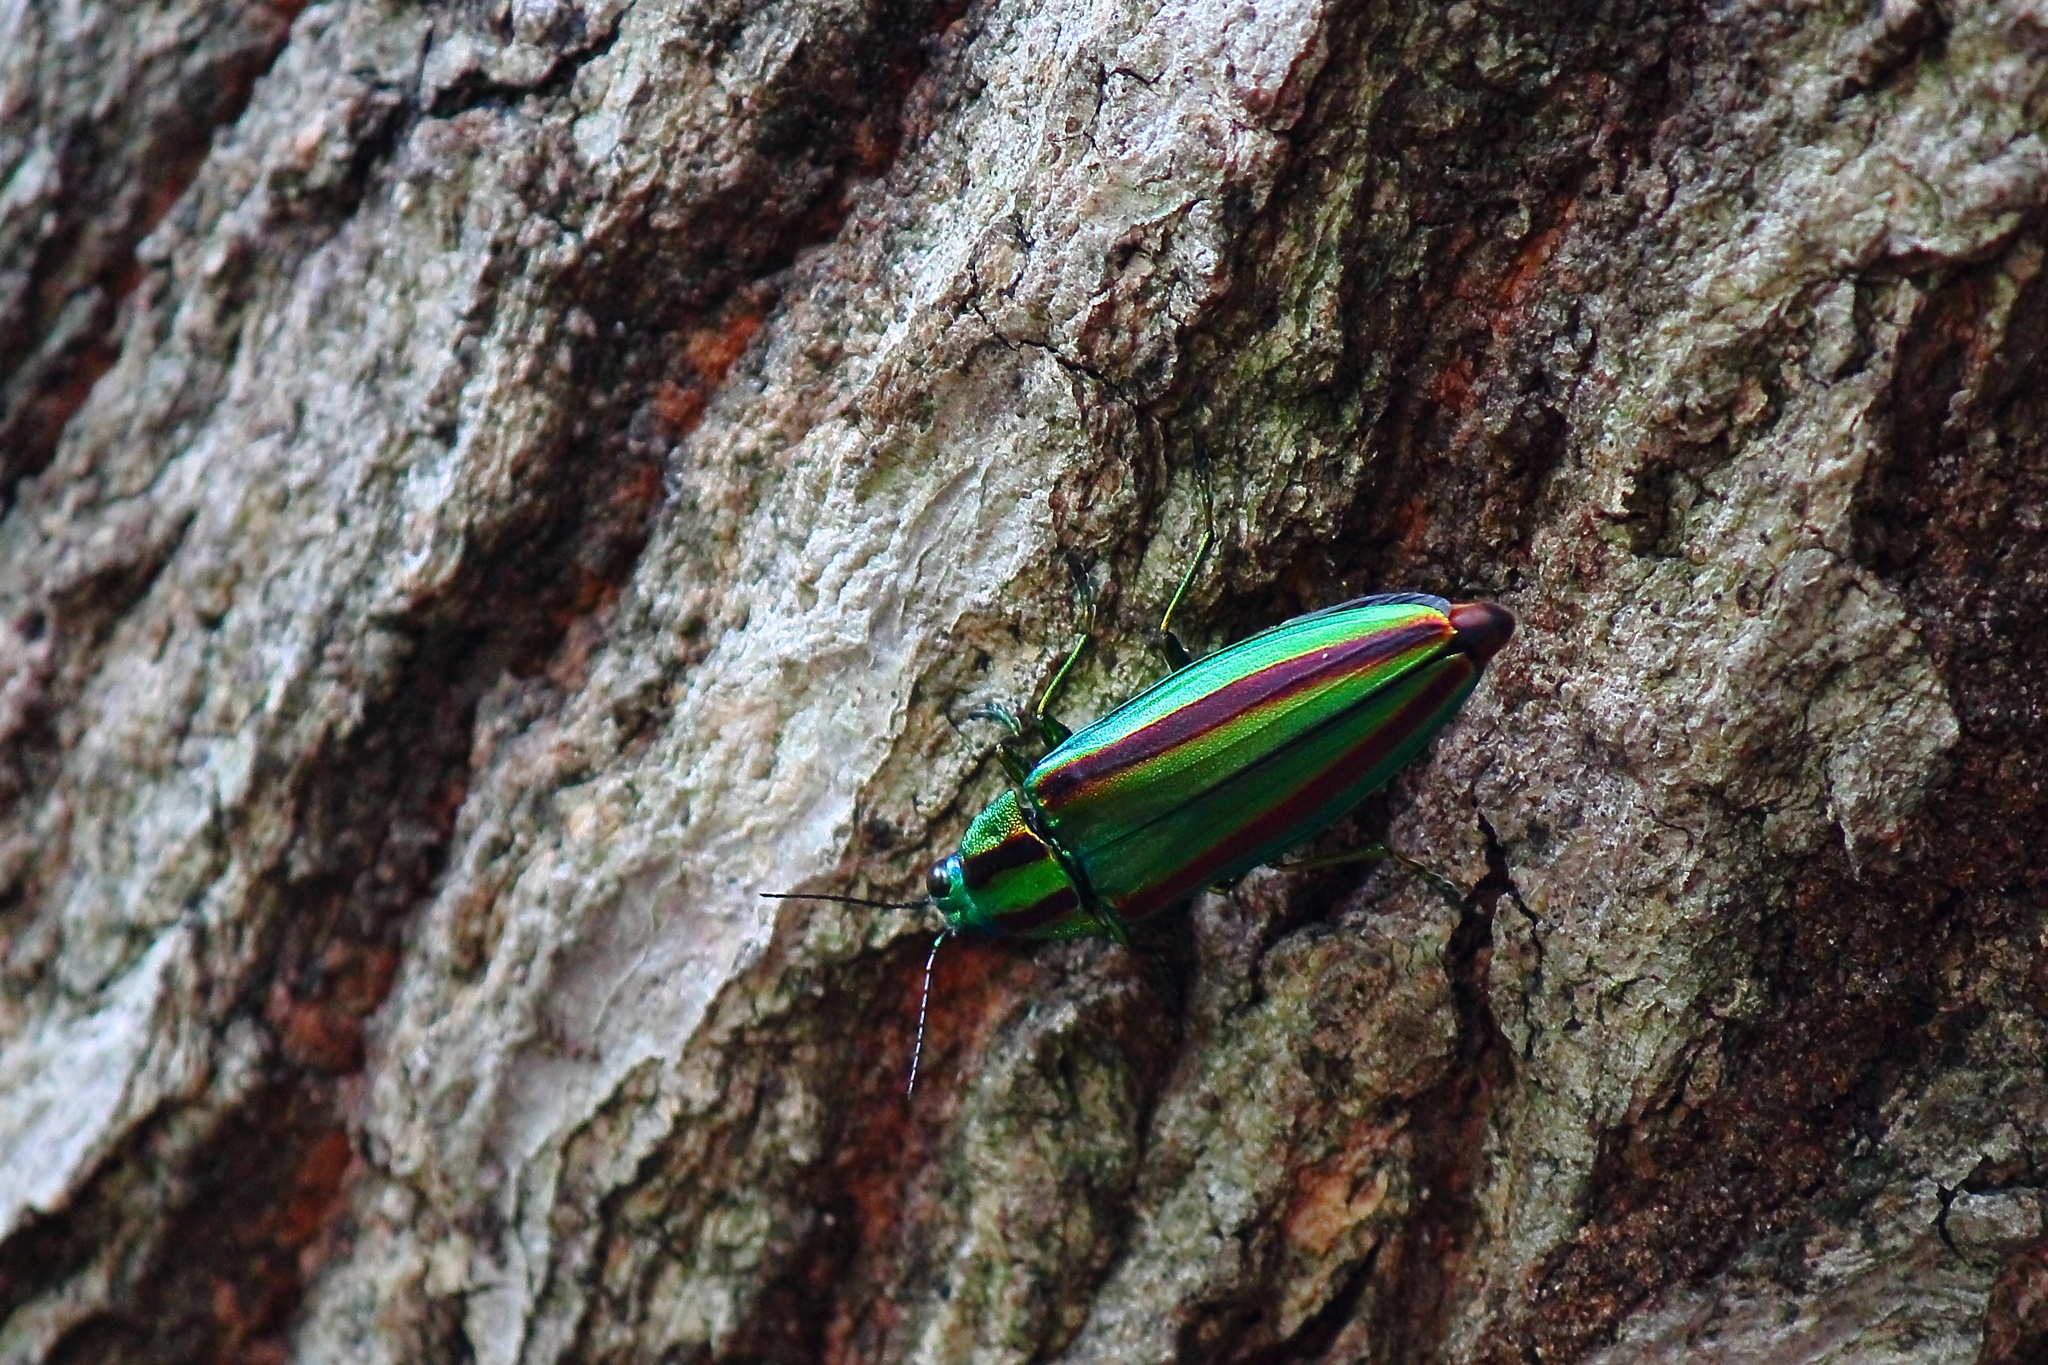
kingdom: Animalia
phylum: Arthropoda
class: Insecta
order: Coleoptera
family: Buprestidae
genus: Chrysochroa
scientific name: Chrysochroa fulgidissima
